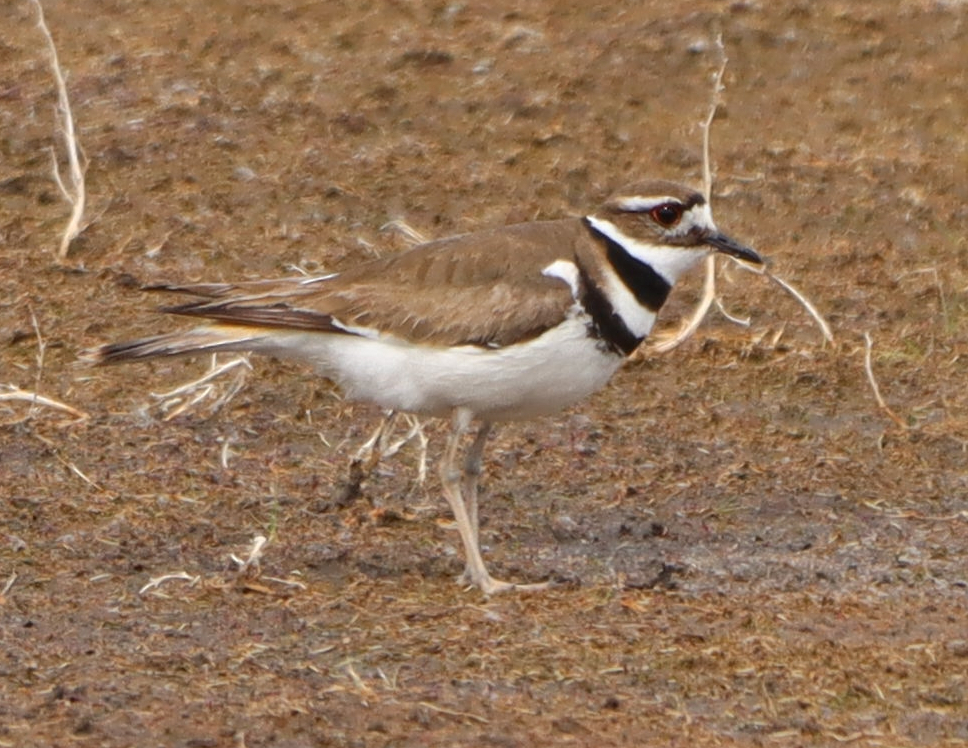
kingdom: Animalia
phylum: Chordata
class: Aves
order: Charadriiformes
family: Charadriidae
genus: Charadrius
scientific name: Charadrius vociferus
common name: Killdeer
